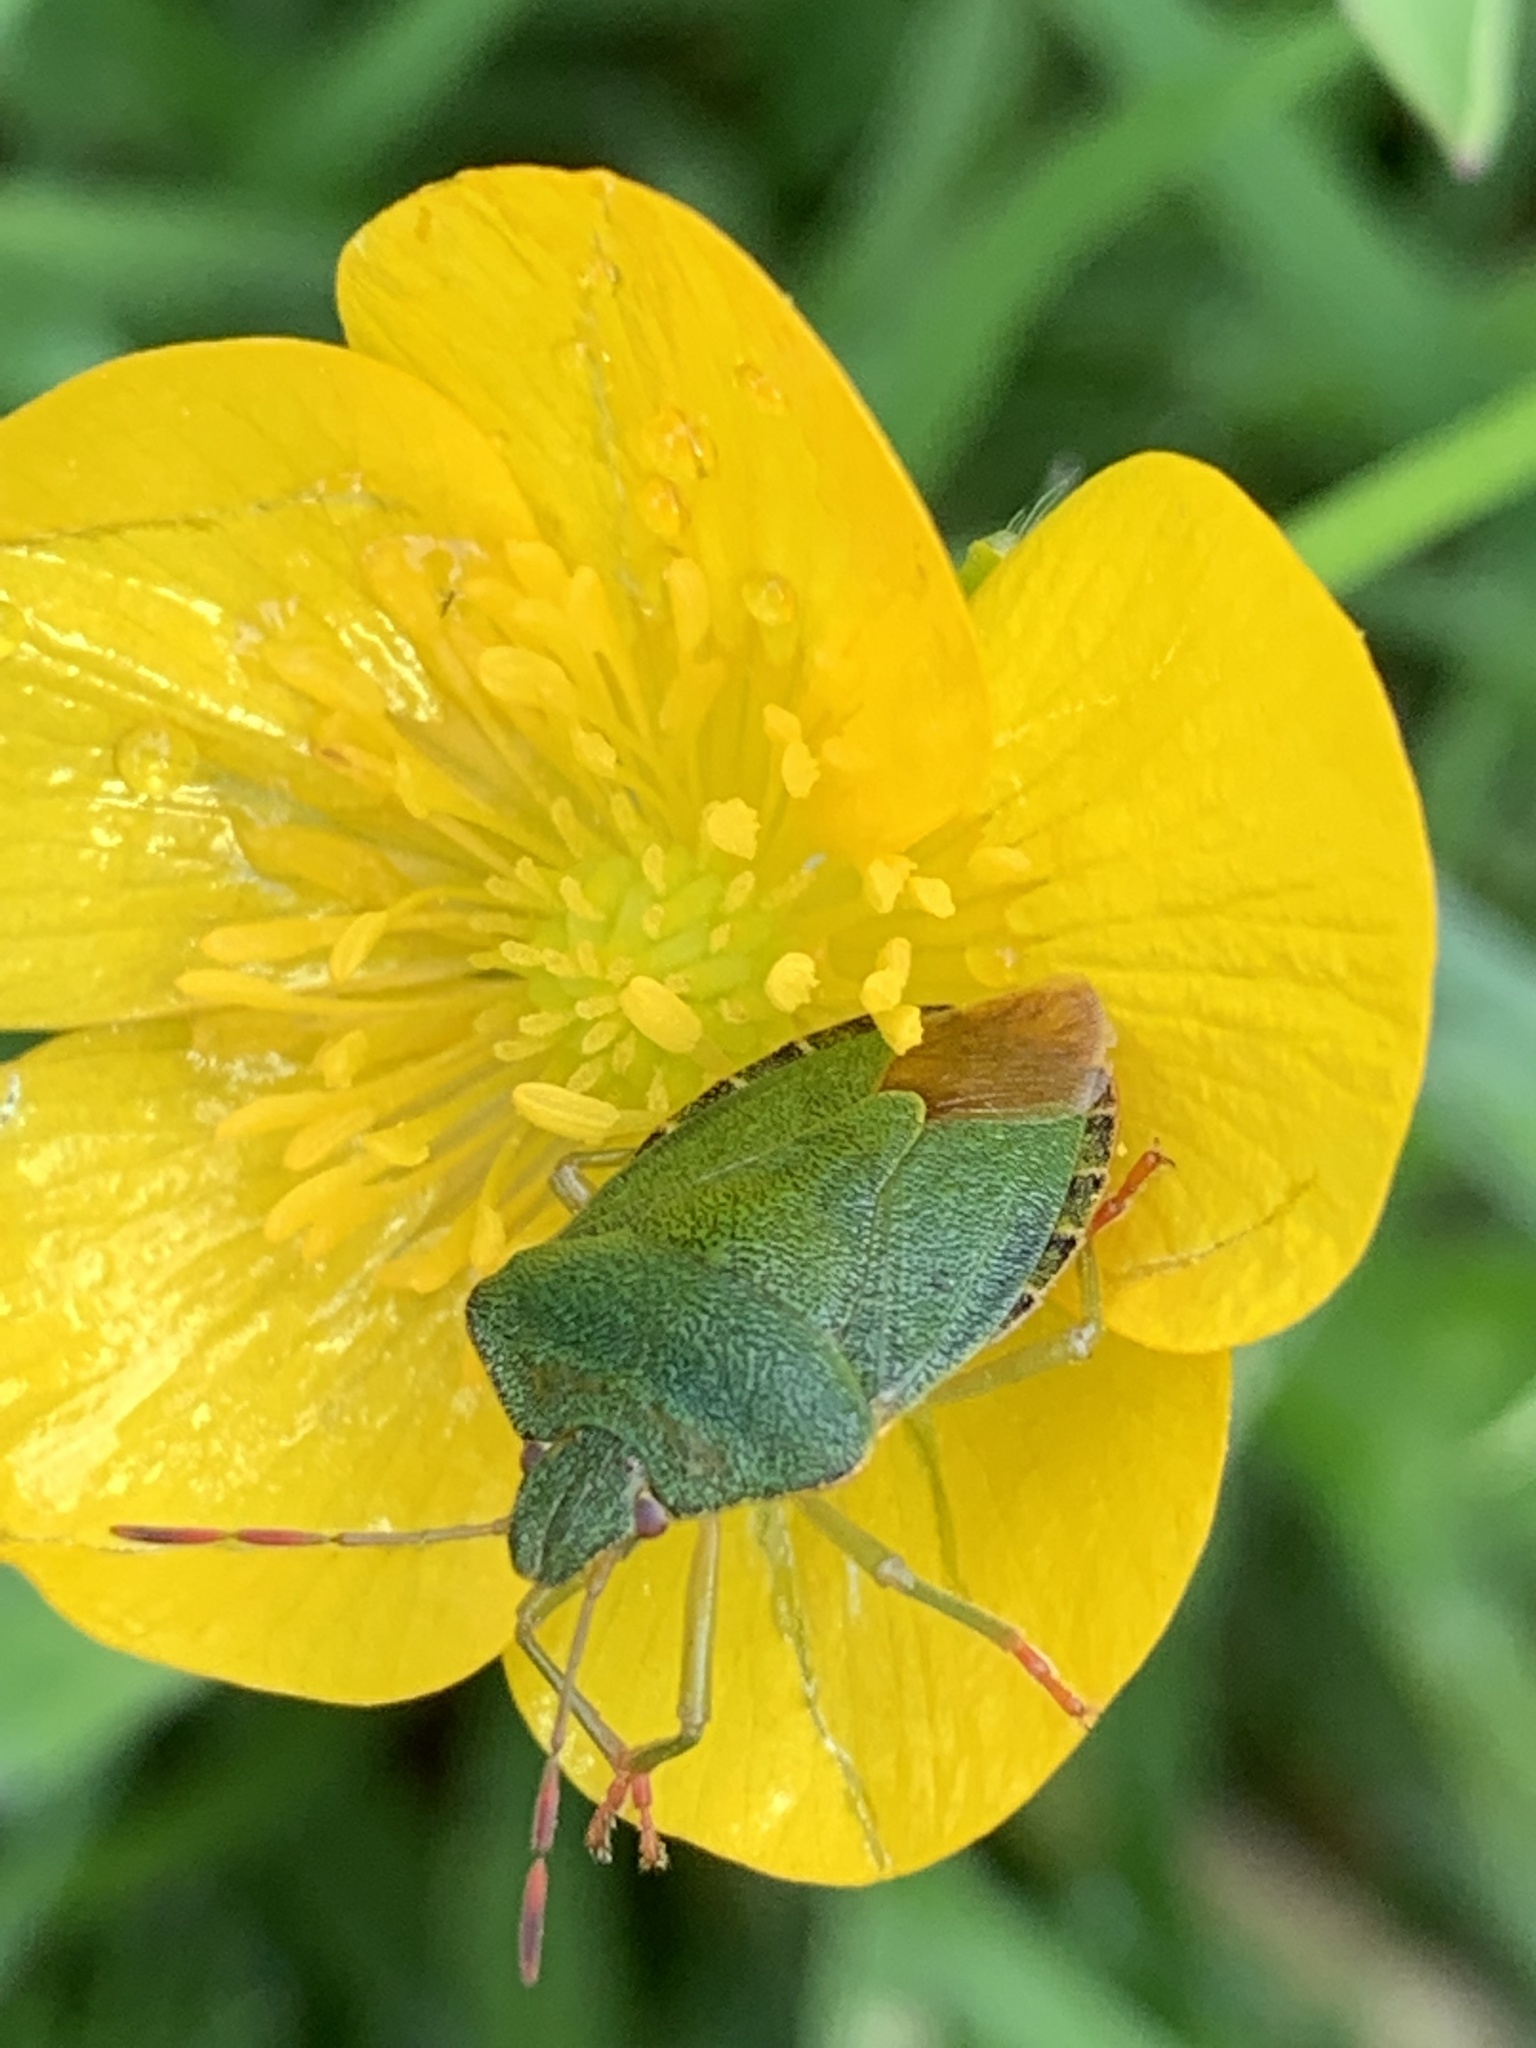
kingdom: Animalia
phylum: Arthropoda
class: Insecta
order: Hemiptera
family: Pentatomidae
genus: Palomena
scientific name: Palomena prasina
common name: Green shieldbug
